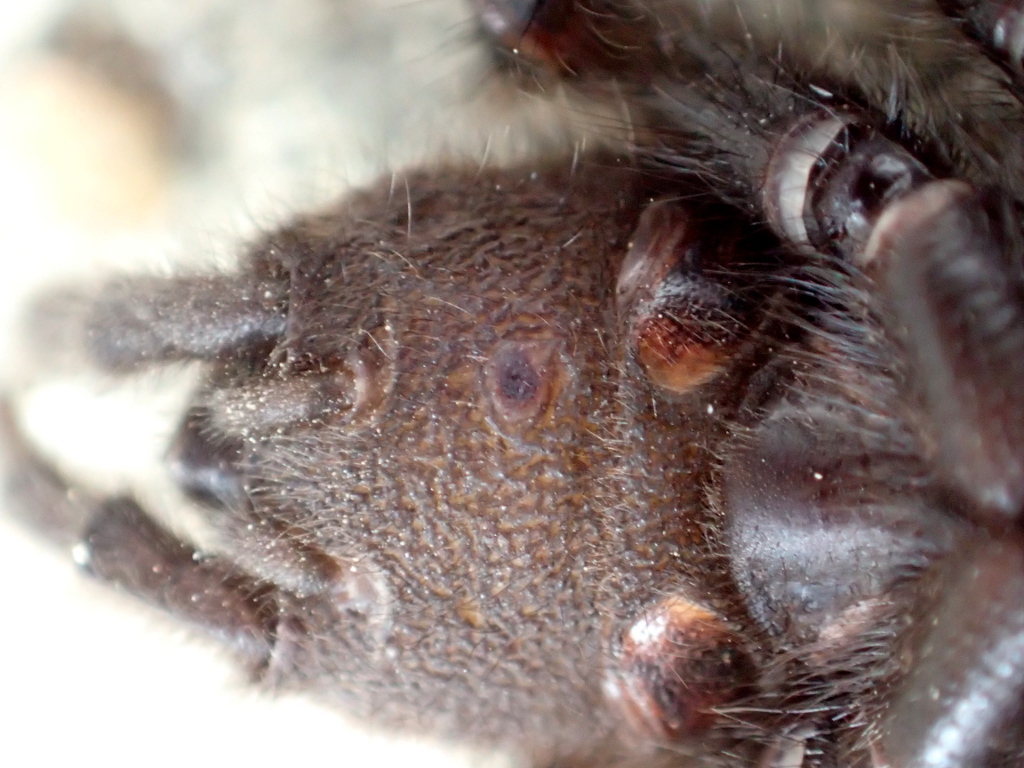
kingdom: Animalia
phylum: Arthropoda
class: Arachnida
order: Araneae
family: Porrhothelidae
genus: Porrhothele
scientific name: Porrhothele antipodiana
